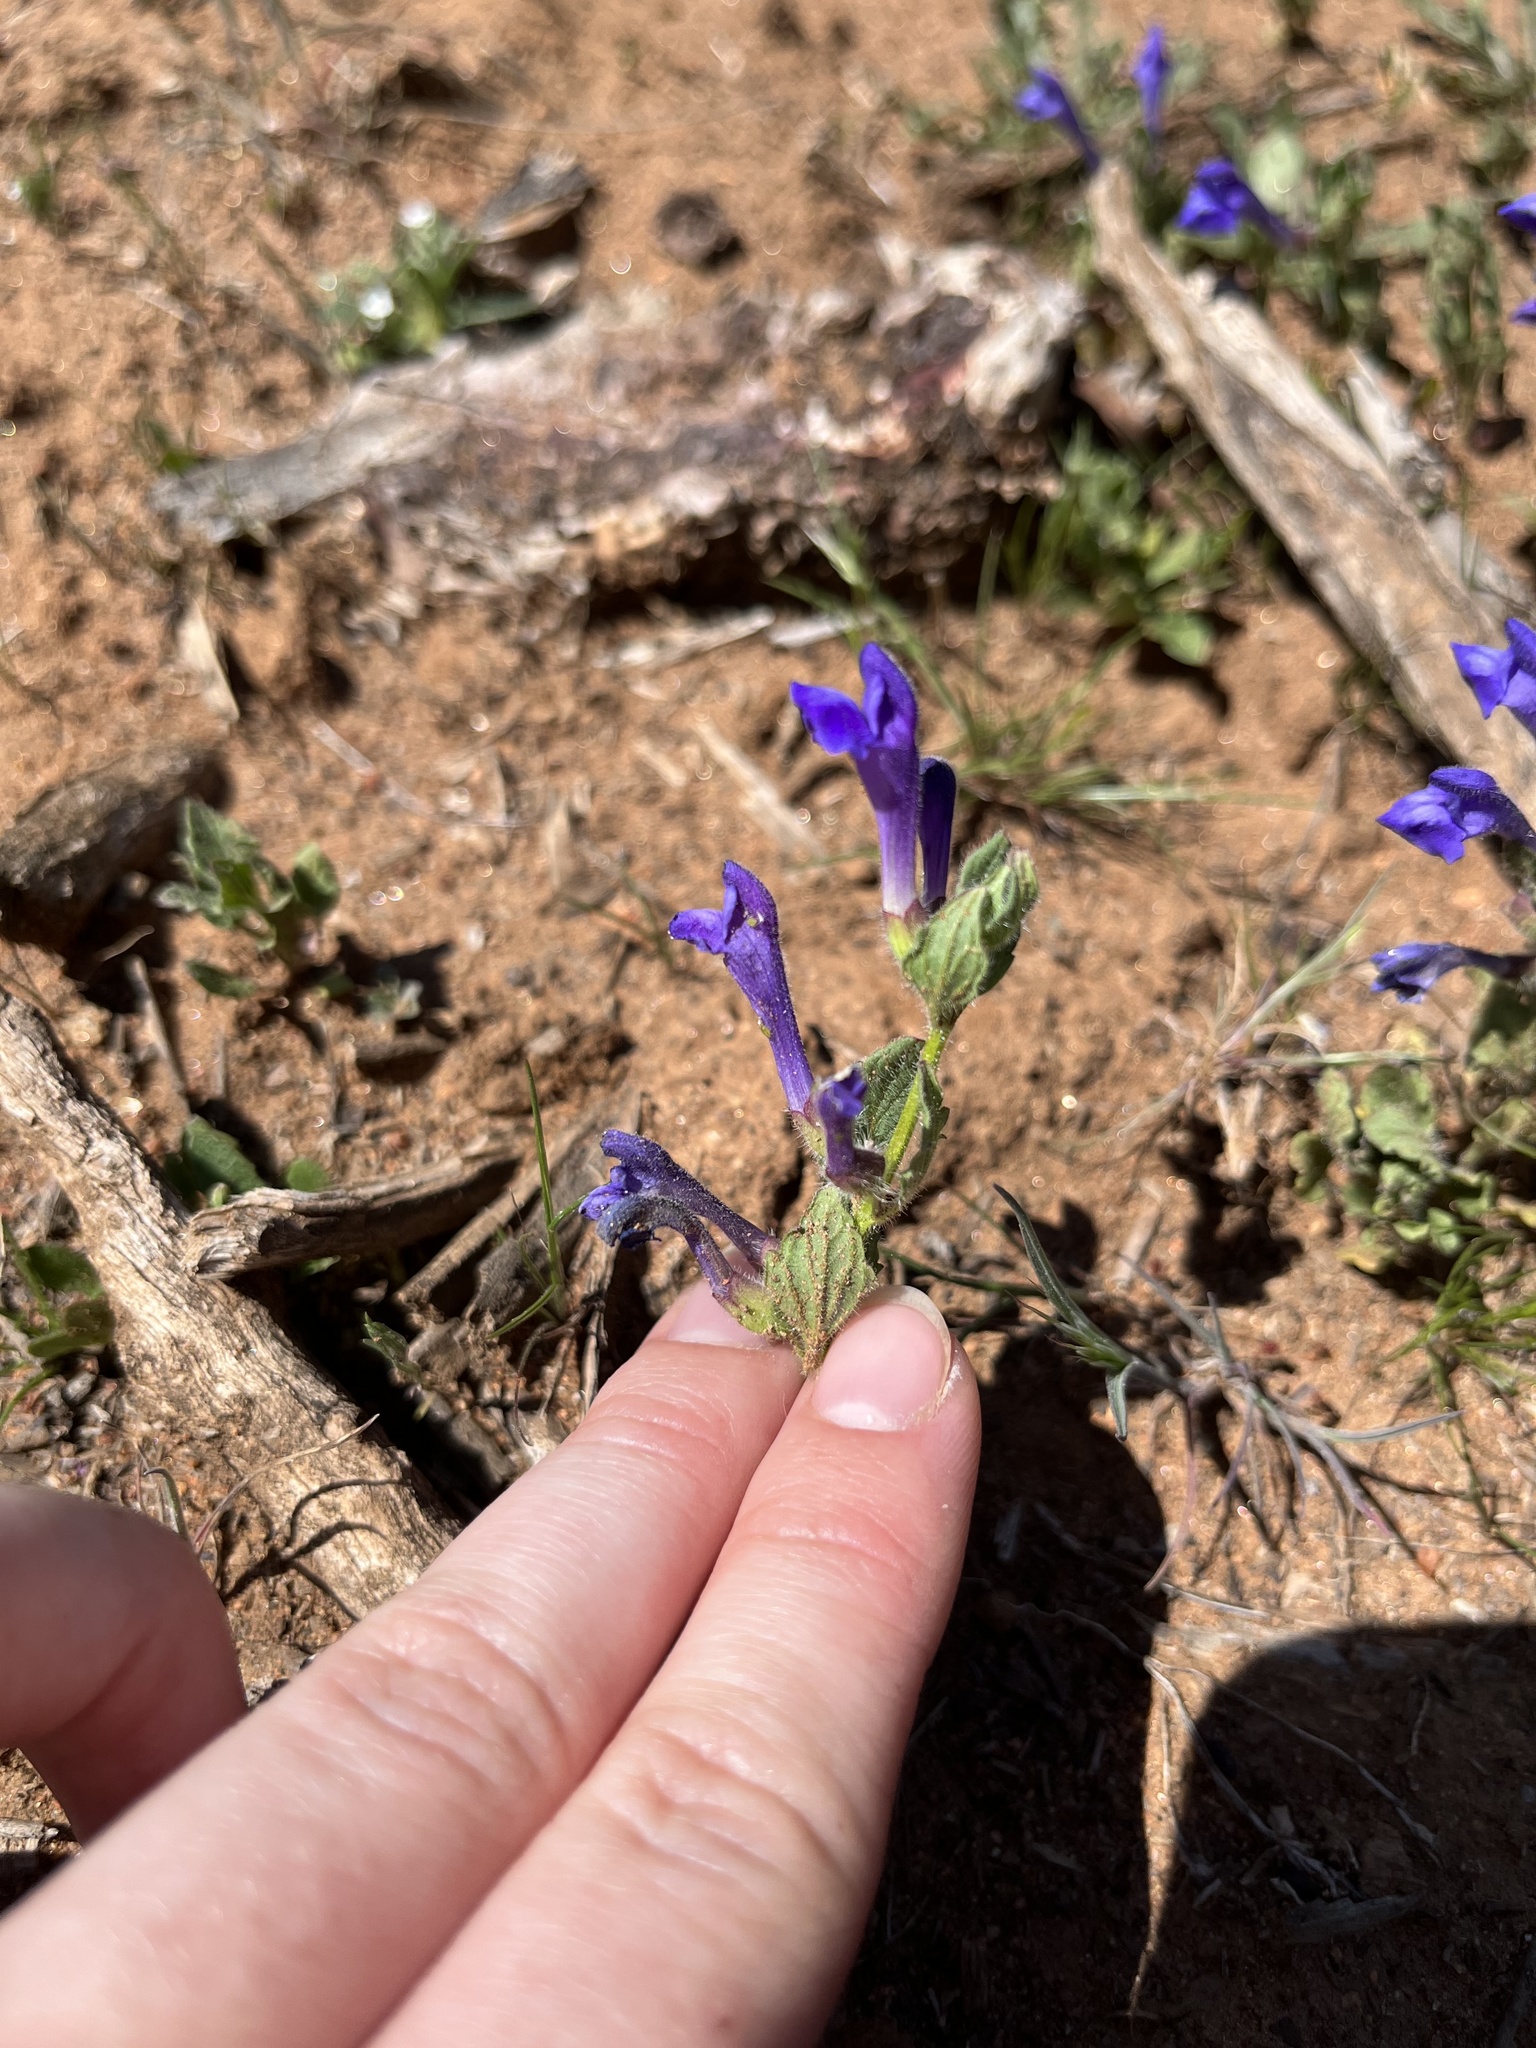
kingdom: Plantae
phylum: Tracheophyta
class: Magnoliopsida
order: Lamiales
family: Lamiaceae
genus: Scutellaria
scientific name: Scutellaria tuberosa
